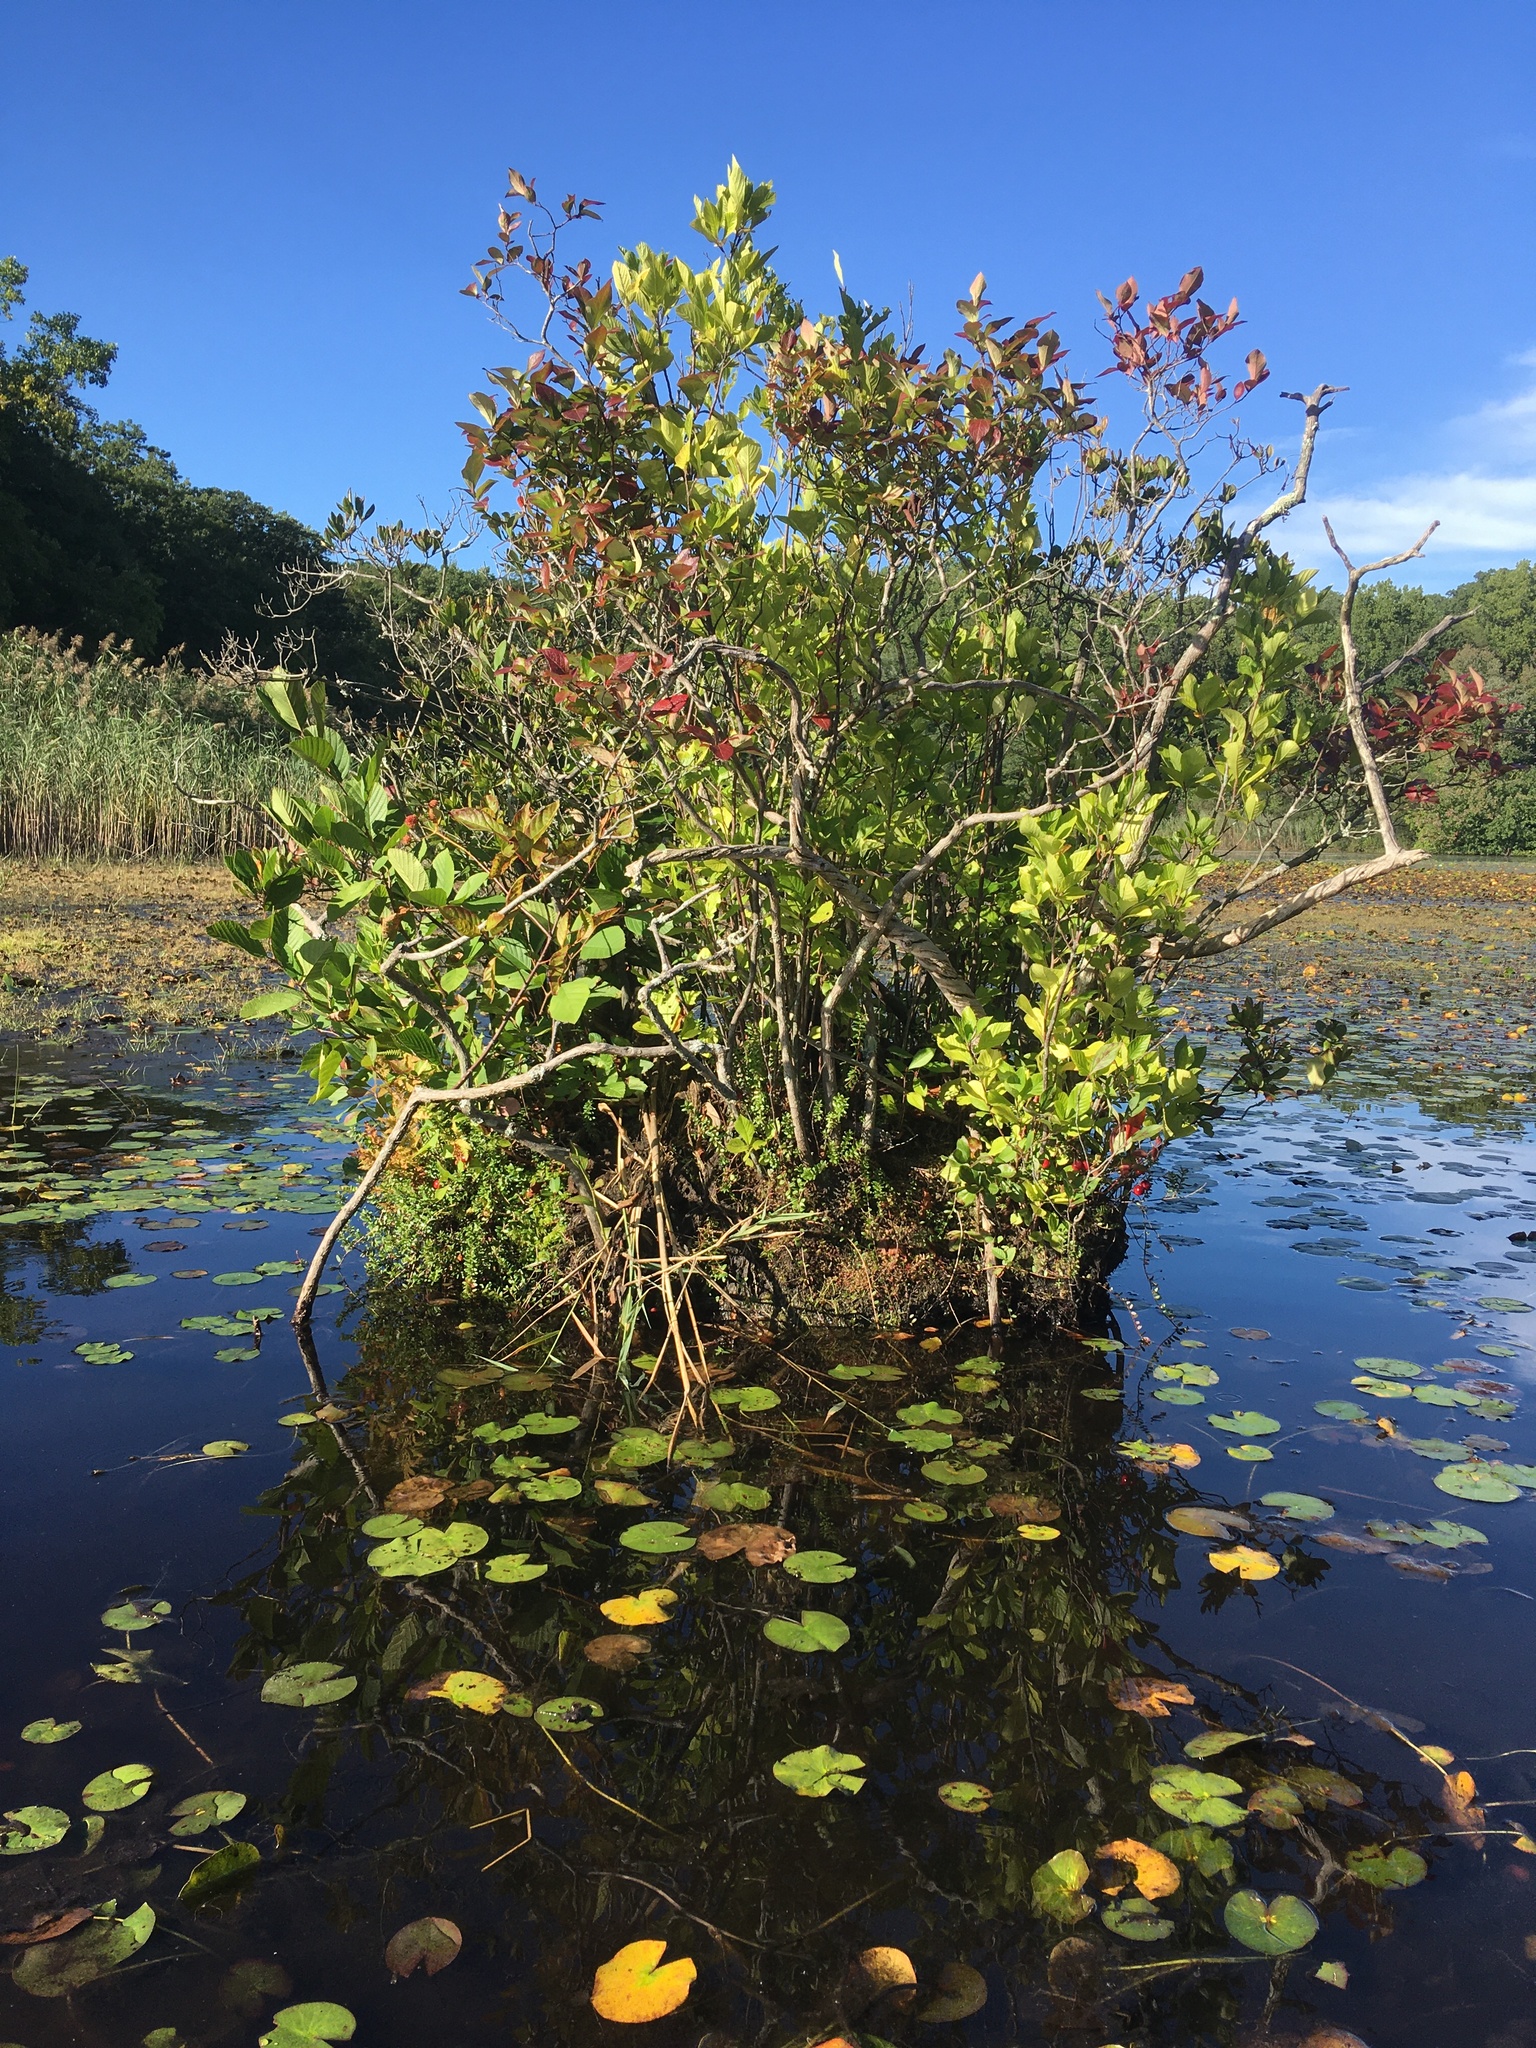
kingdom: Animalia
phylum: Arthropoda
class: Insecta
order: Coleoptera
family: Coccinellidae
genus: Coleomegilla
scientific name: Coleomegilla maculata
